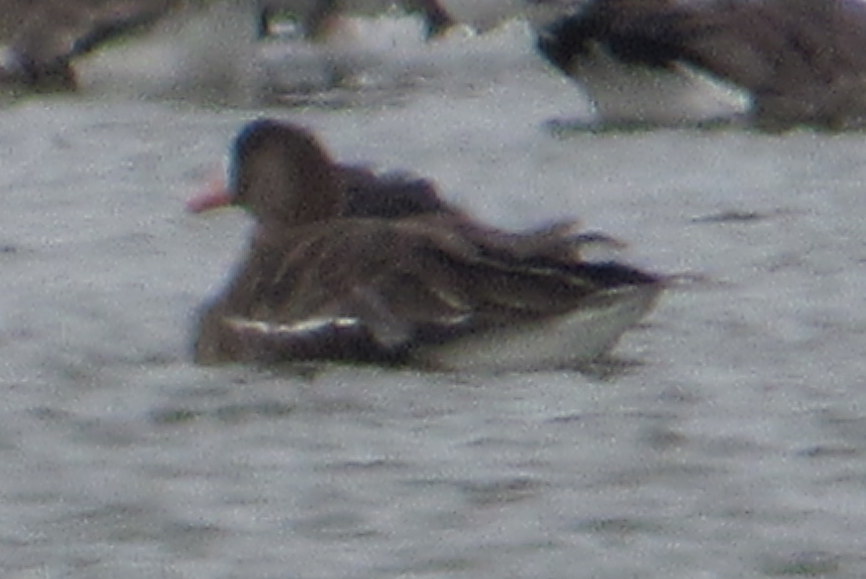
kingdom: Animalia
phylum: Chordata
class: Aves
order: Anseriformes
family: Anatidae
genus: Anser
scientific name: Anser albifrons
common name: Greater white-fronted goose
